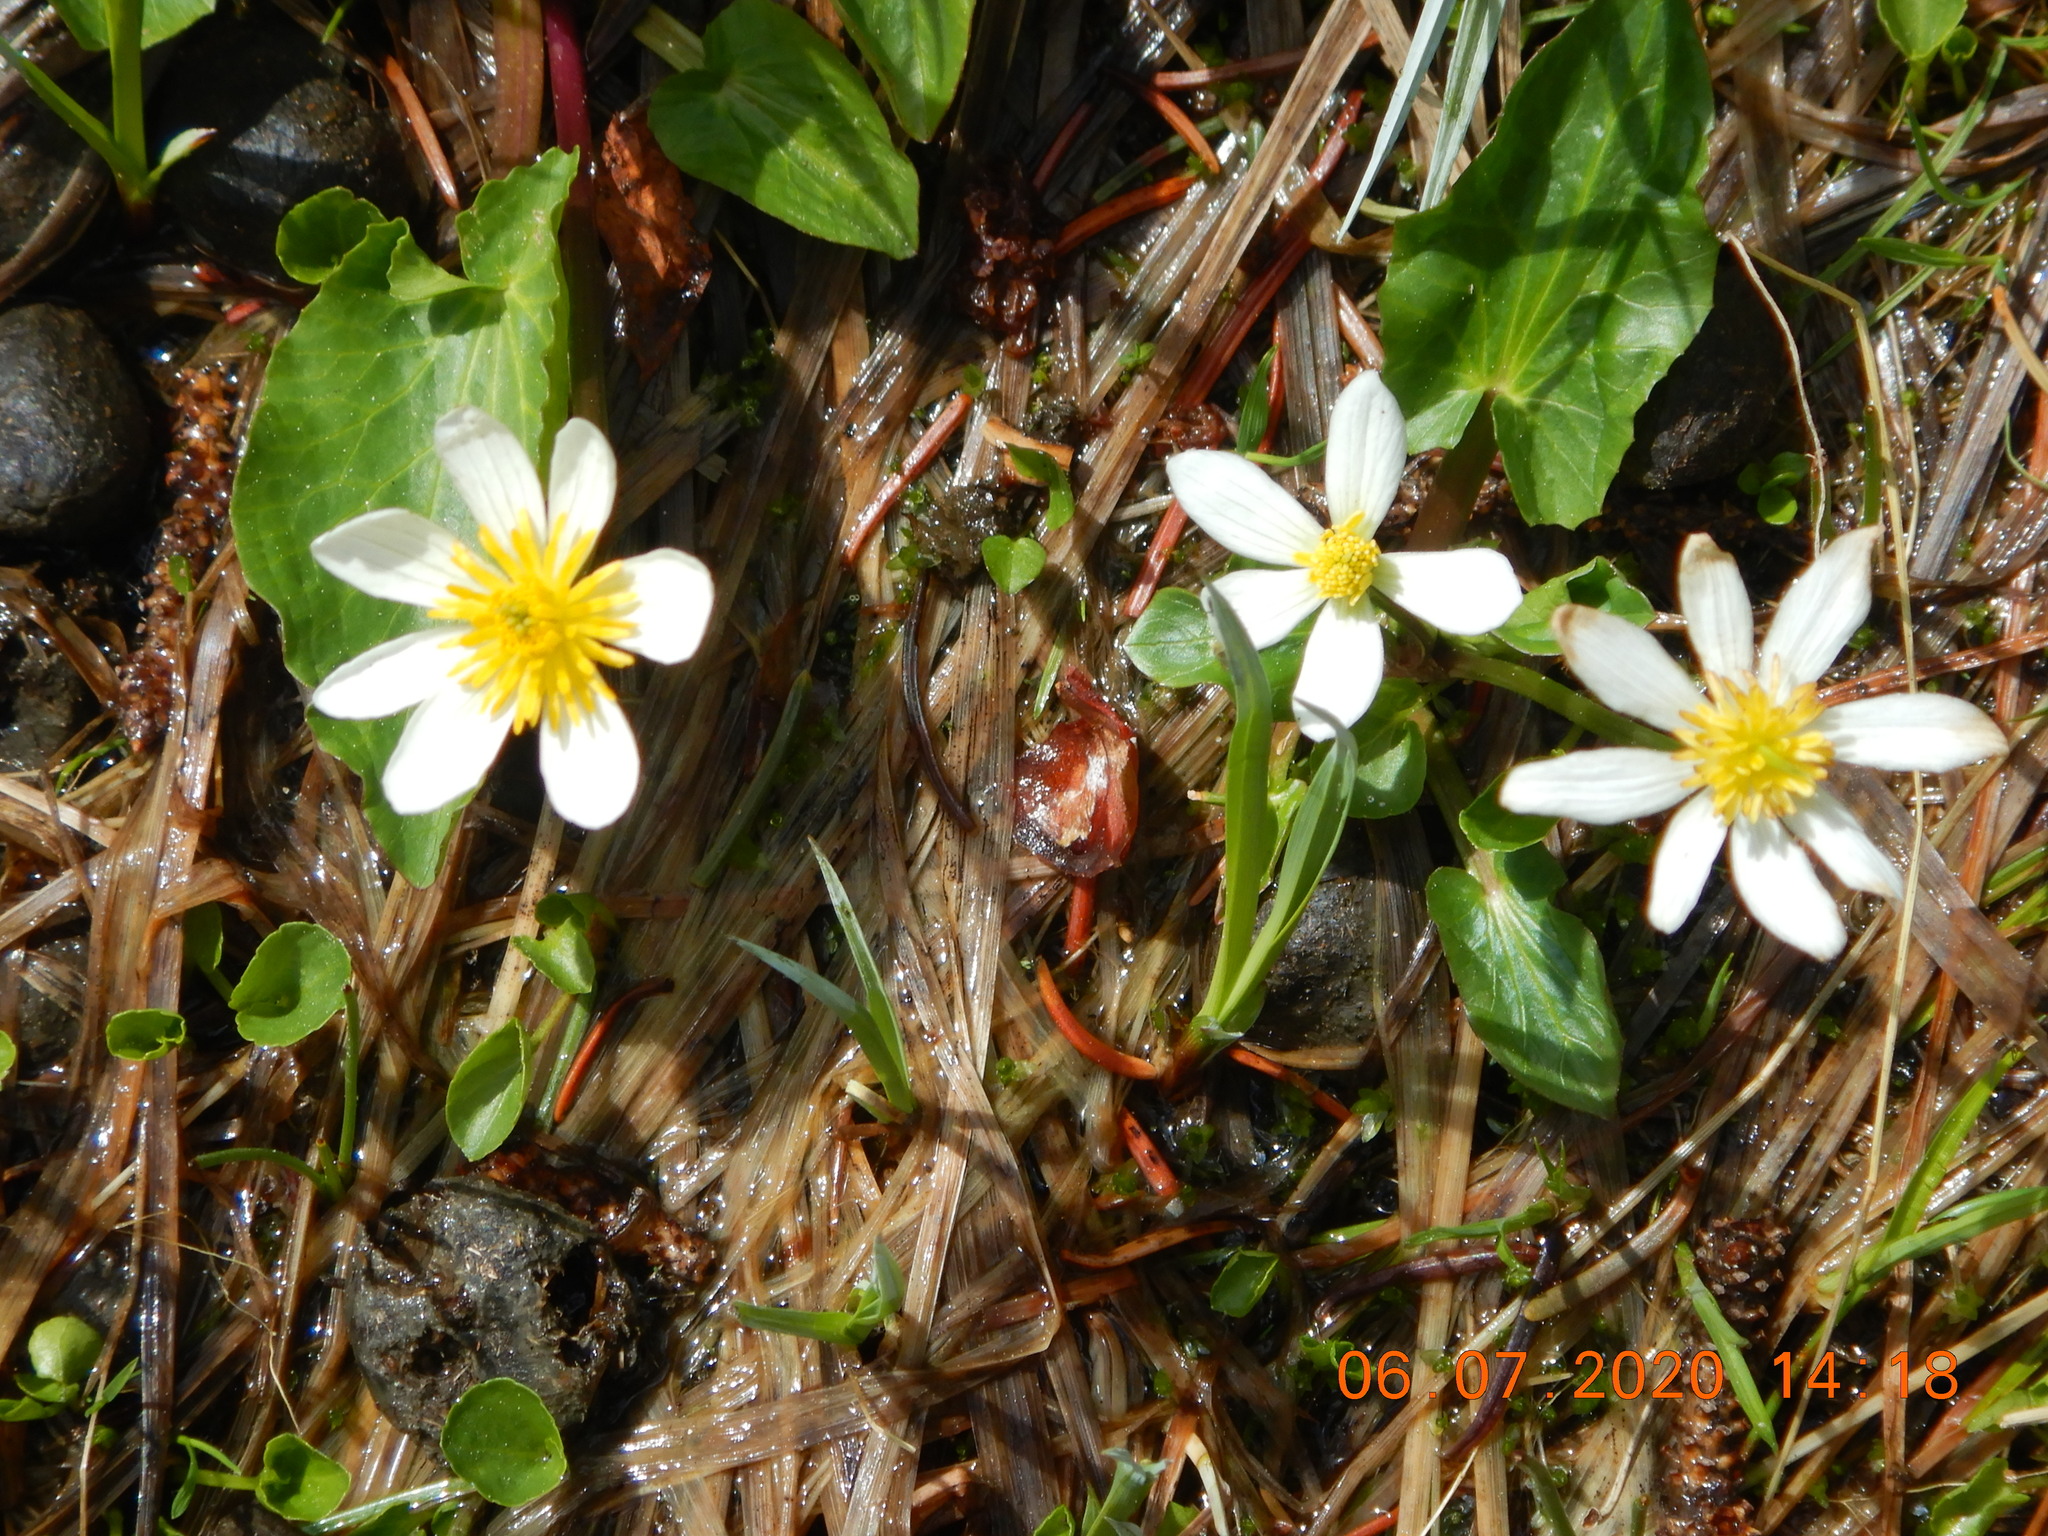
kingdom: Plantae
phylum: Tracheophyta
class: Magnoliopsida
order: Ranunculales
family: Ranunculaceae
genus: Caltha
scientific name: Caltha leptosepala
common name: Elkslip
